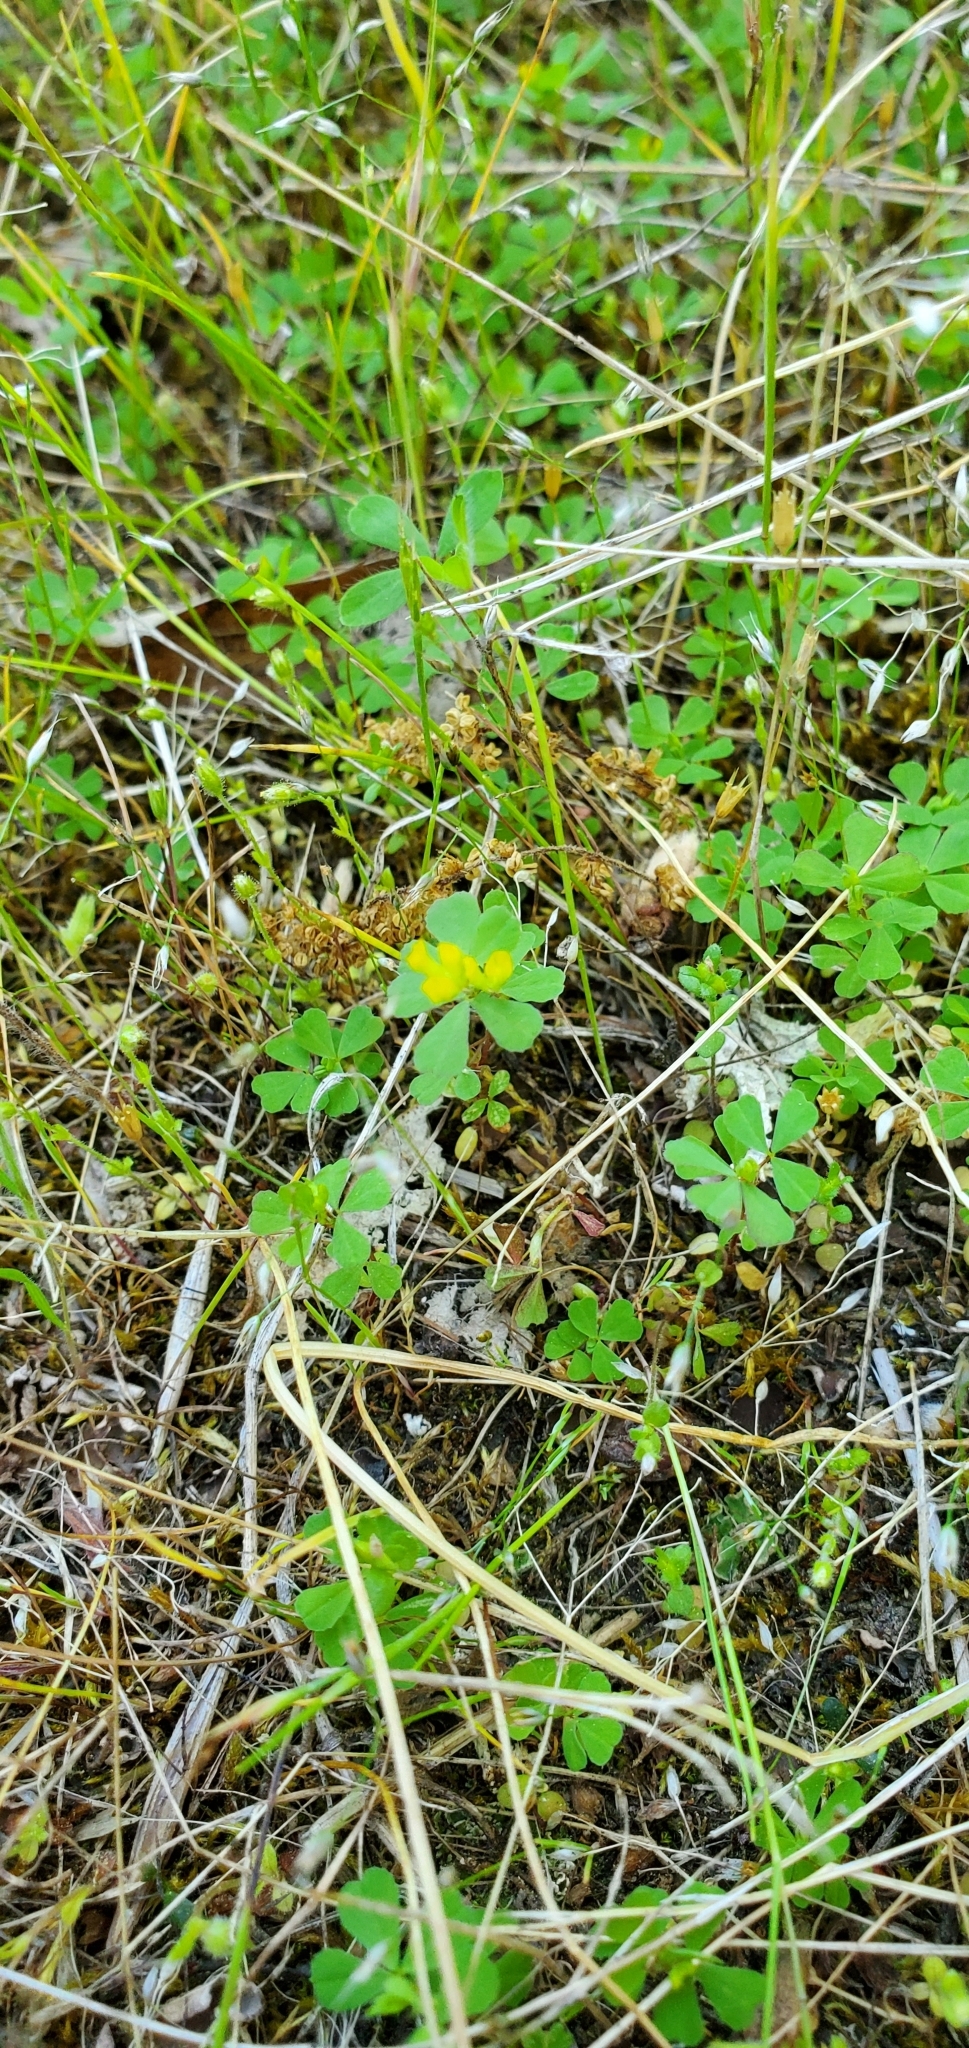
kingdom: Plantae
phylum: Tracheophyta
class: Magnoliopsida
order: Fabales
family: Fabaceae
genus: Trifolium
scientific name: Trifolium dubium
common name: Suckling clover
